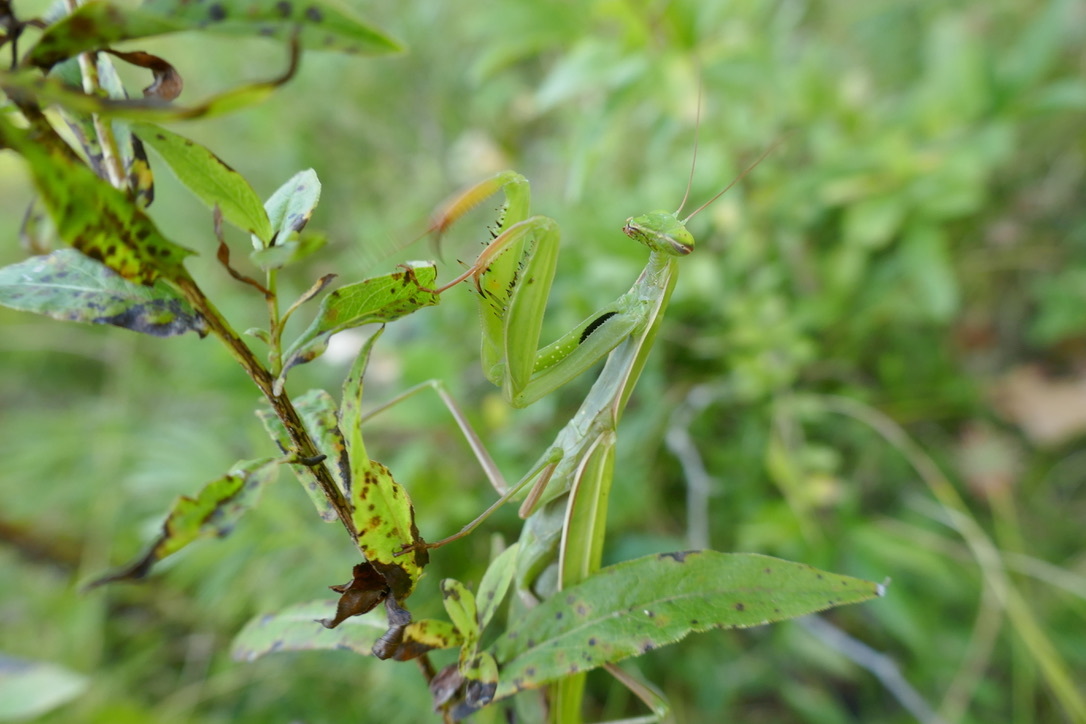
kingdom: Animalia
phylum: Arthropoda
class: Insecta
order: Mantodea
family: Mantidae
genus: Mantis
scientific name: Mantis religiosa
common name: Praying mantis
